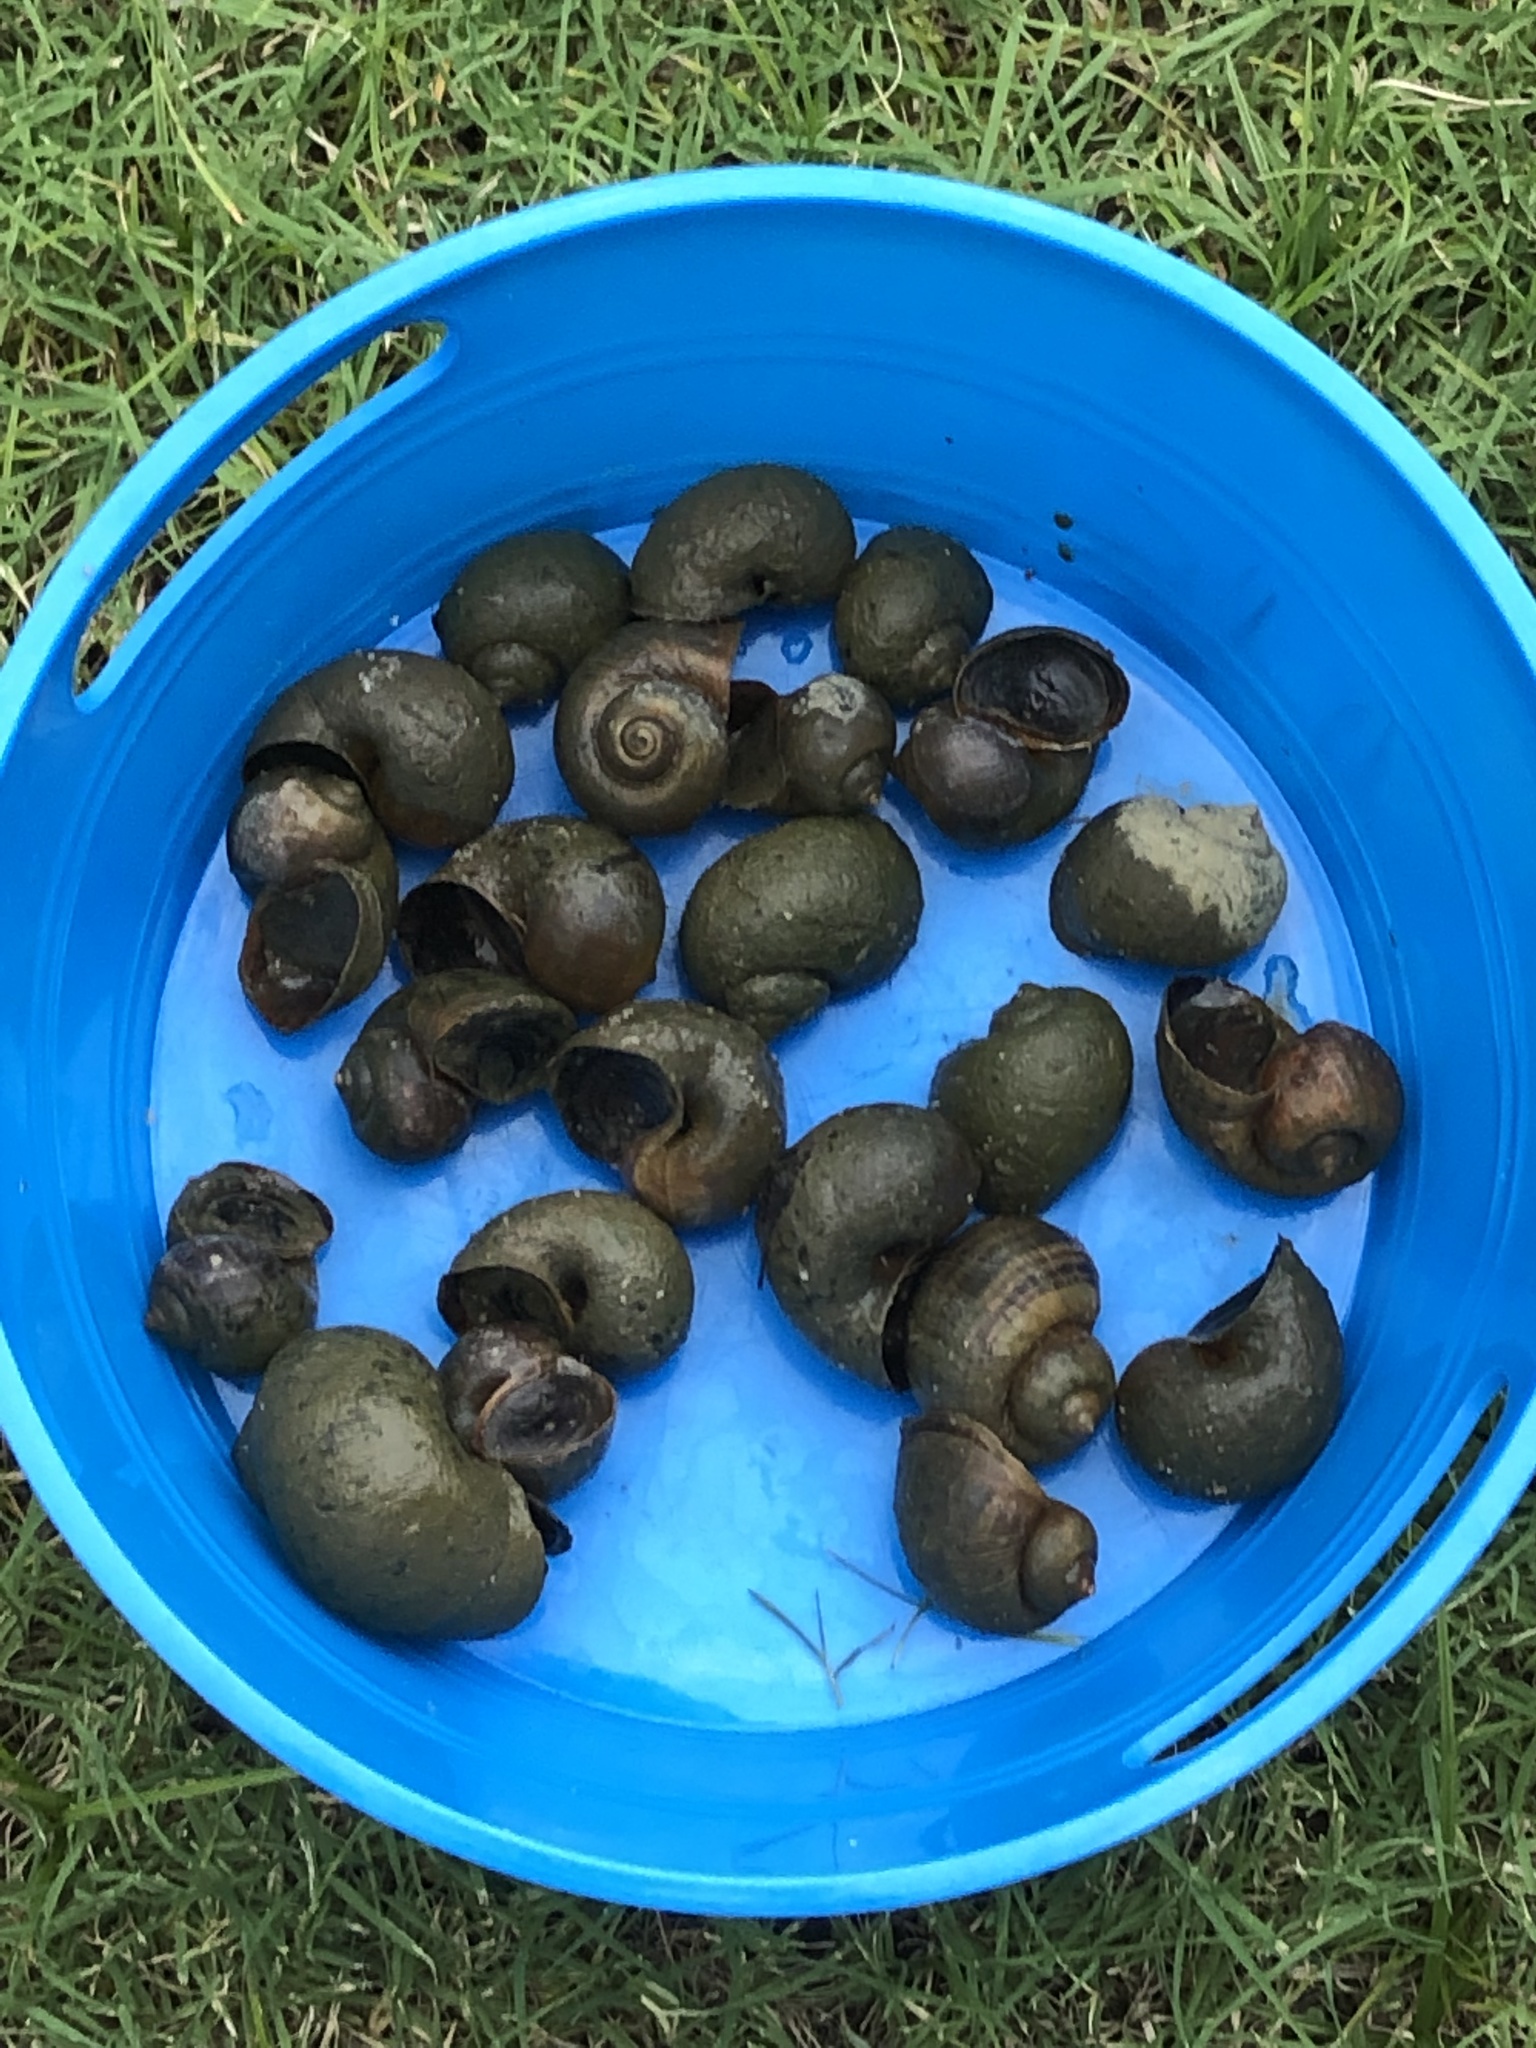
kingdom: Animalia
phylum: Mollusca
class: Gastropoda
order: Architaenioglossa
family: Ampullariidae
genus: Pomacea
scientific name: Pomacea canaliculata
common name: Channeled applesnail
